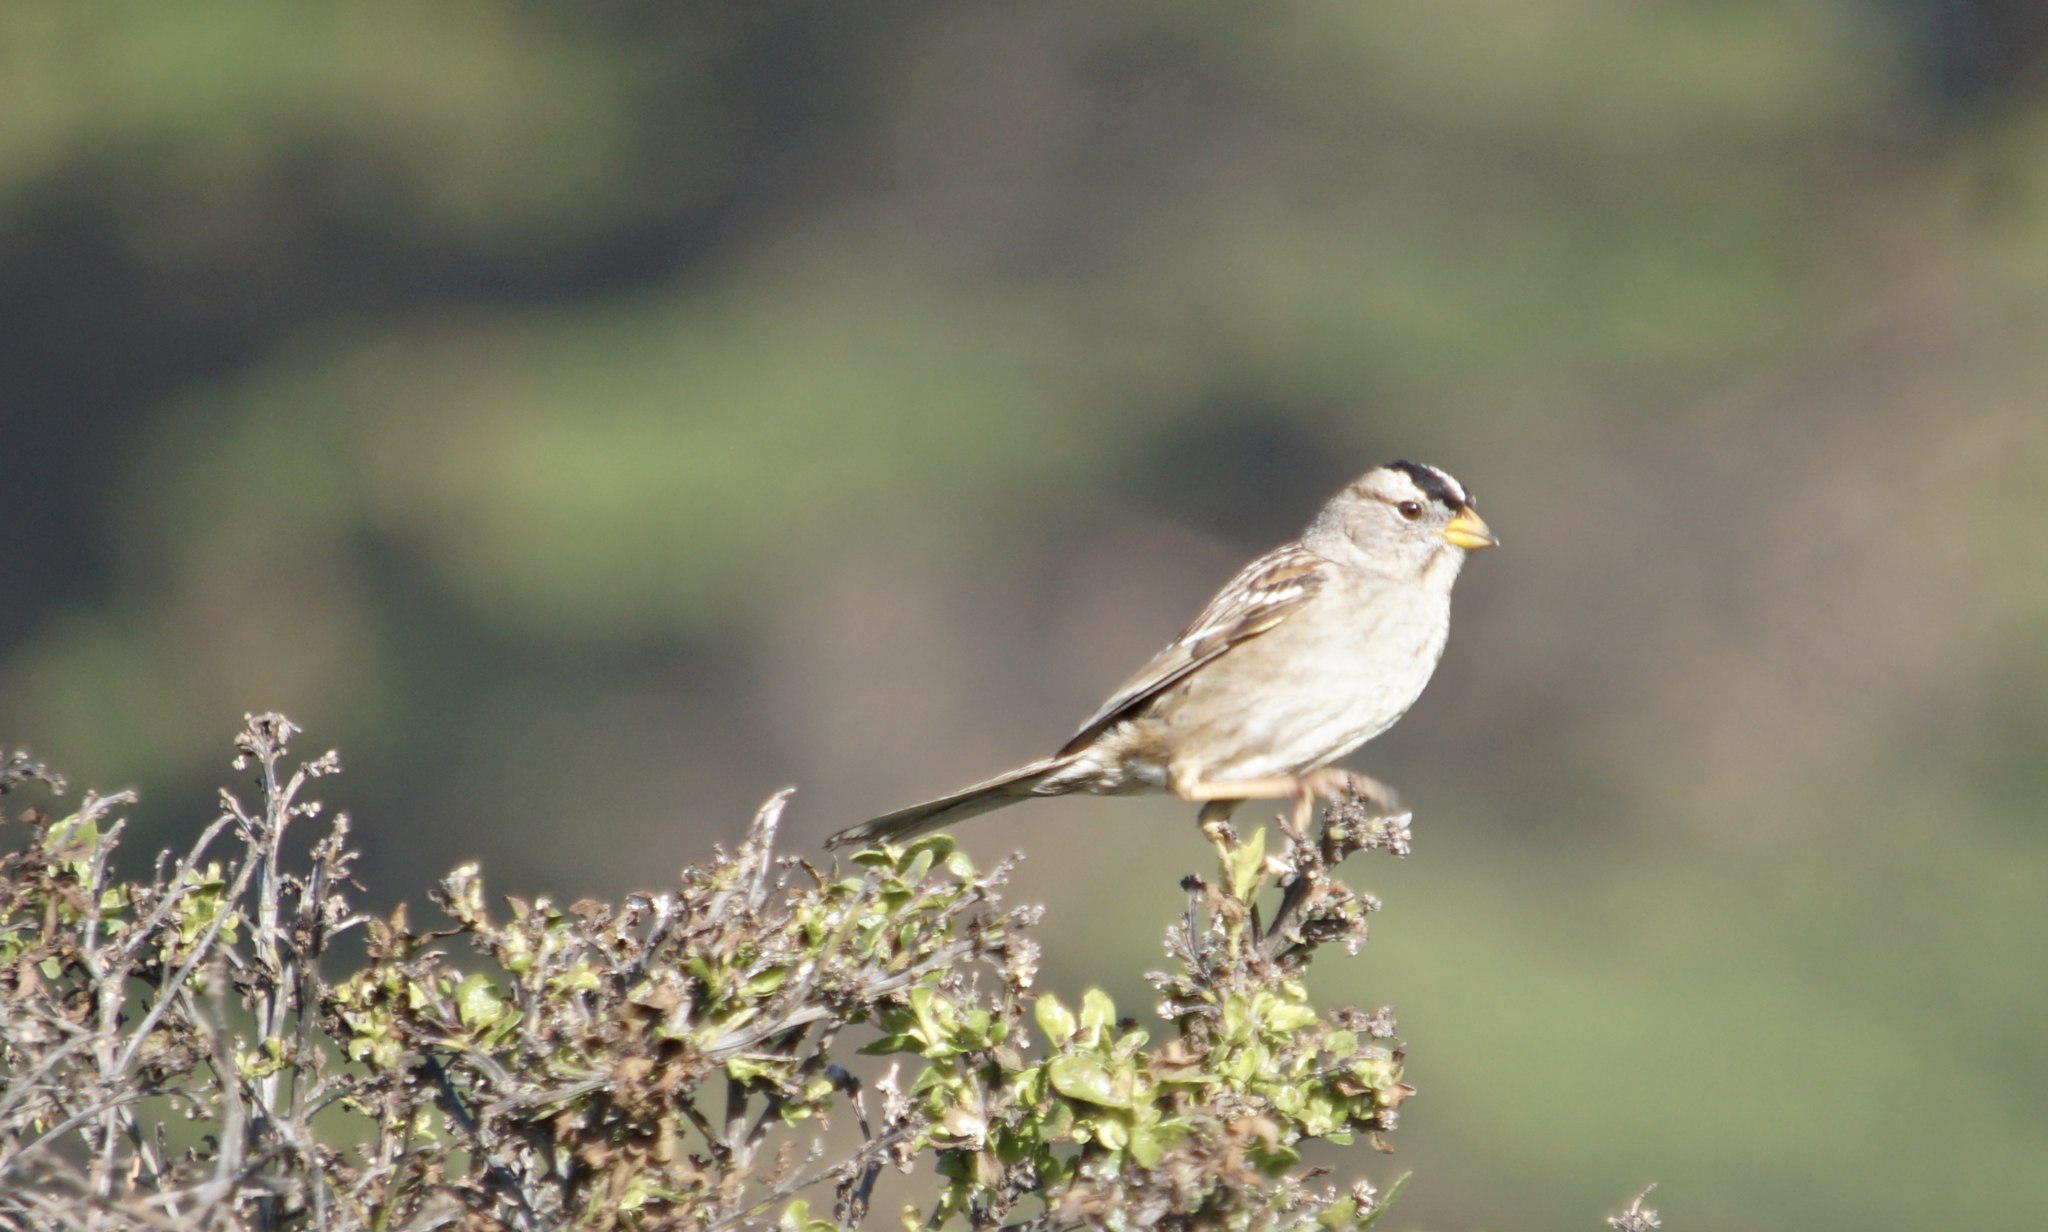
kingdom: Animalia
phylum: Chordata
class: Aves
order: Passeriformes
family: Passerellidae
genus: Zonotrichia
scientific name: Zonotrichia leucophrys
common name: White-crowned sparrow
